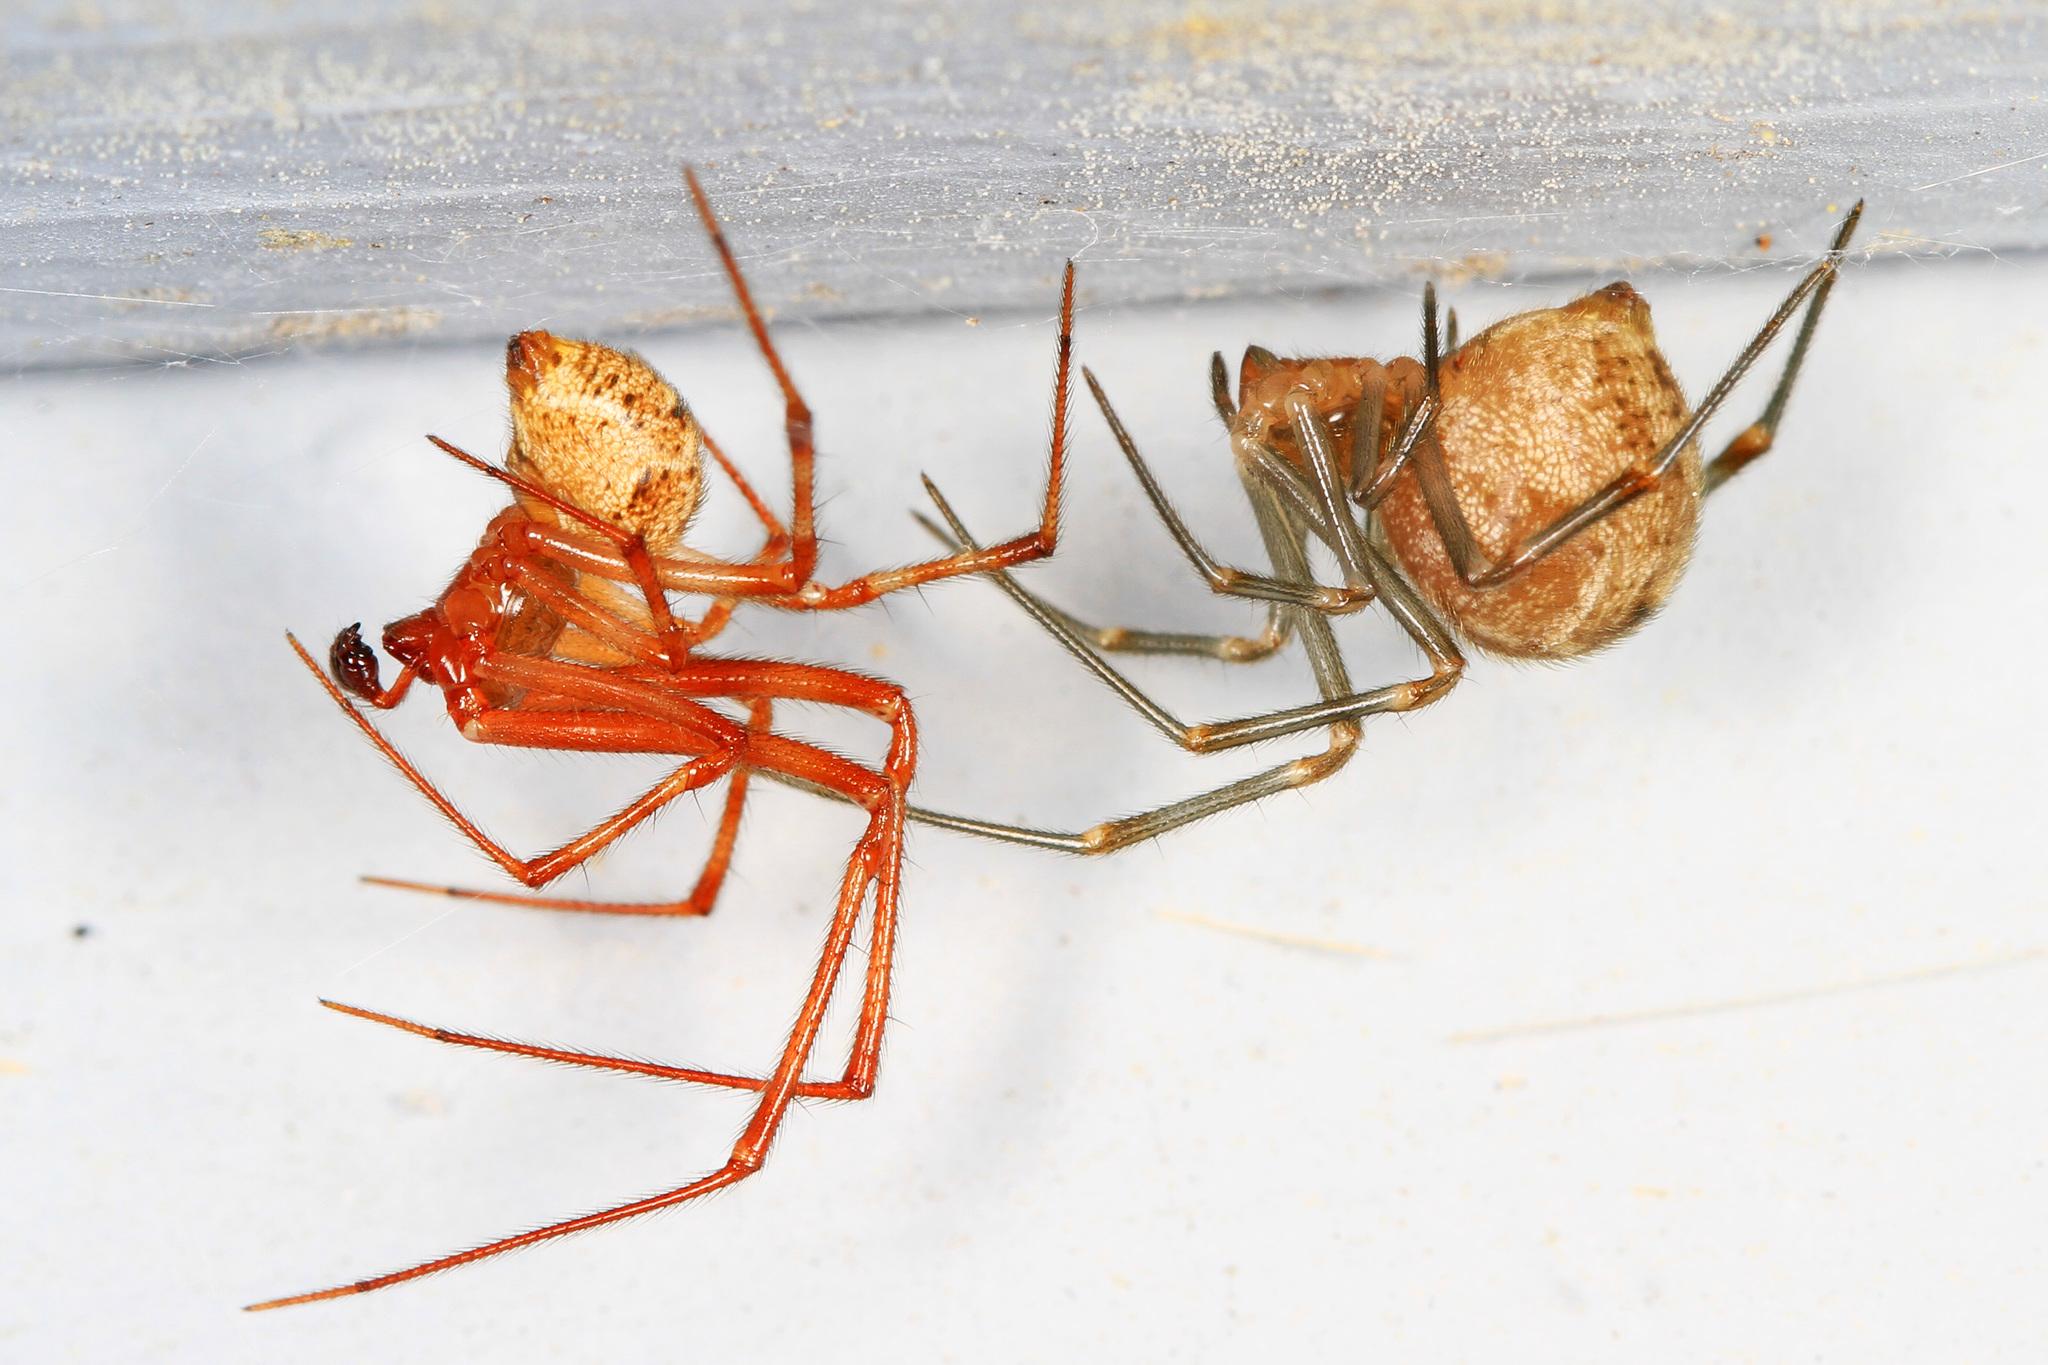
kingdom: Animalia
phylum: Arthropoda
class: Arachnida
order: Araneae
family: Theridiidae
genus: Parasteatoda
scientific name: Parasteatoda tepidariorum
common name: Common house spider
